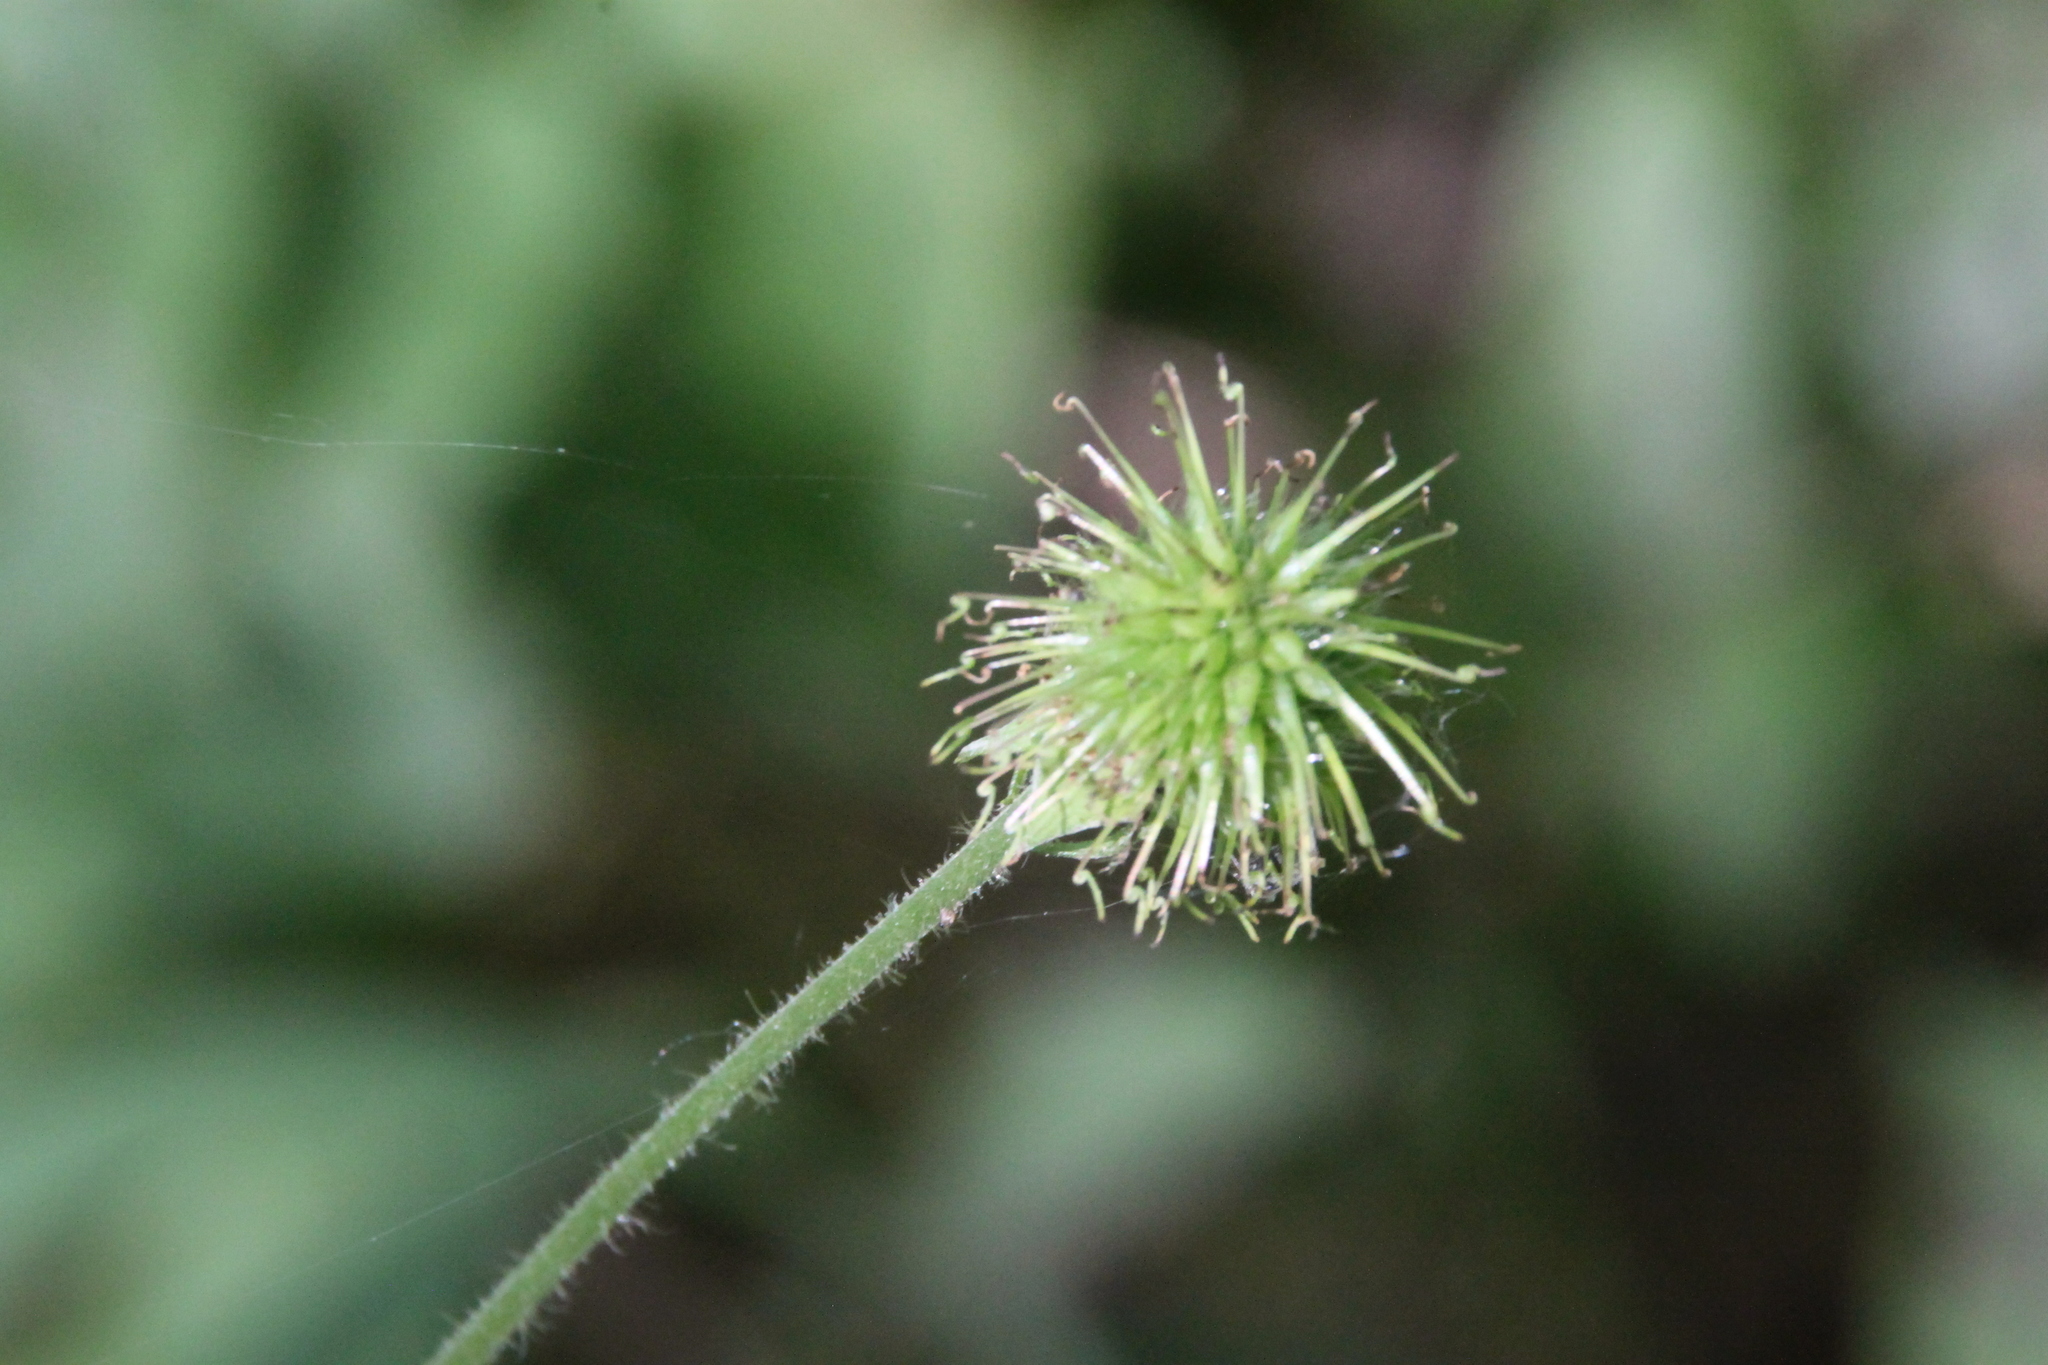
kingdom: Plantae
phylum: Tracheophyta
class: Magnoliopsida
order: Rosales
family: Rosaceae
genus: Geum
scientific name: Geum urbanum
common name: Wood avens
